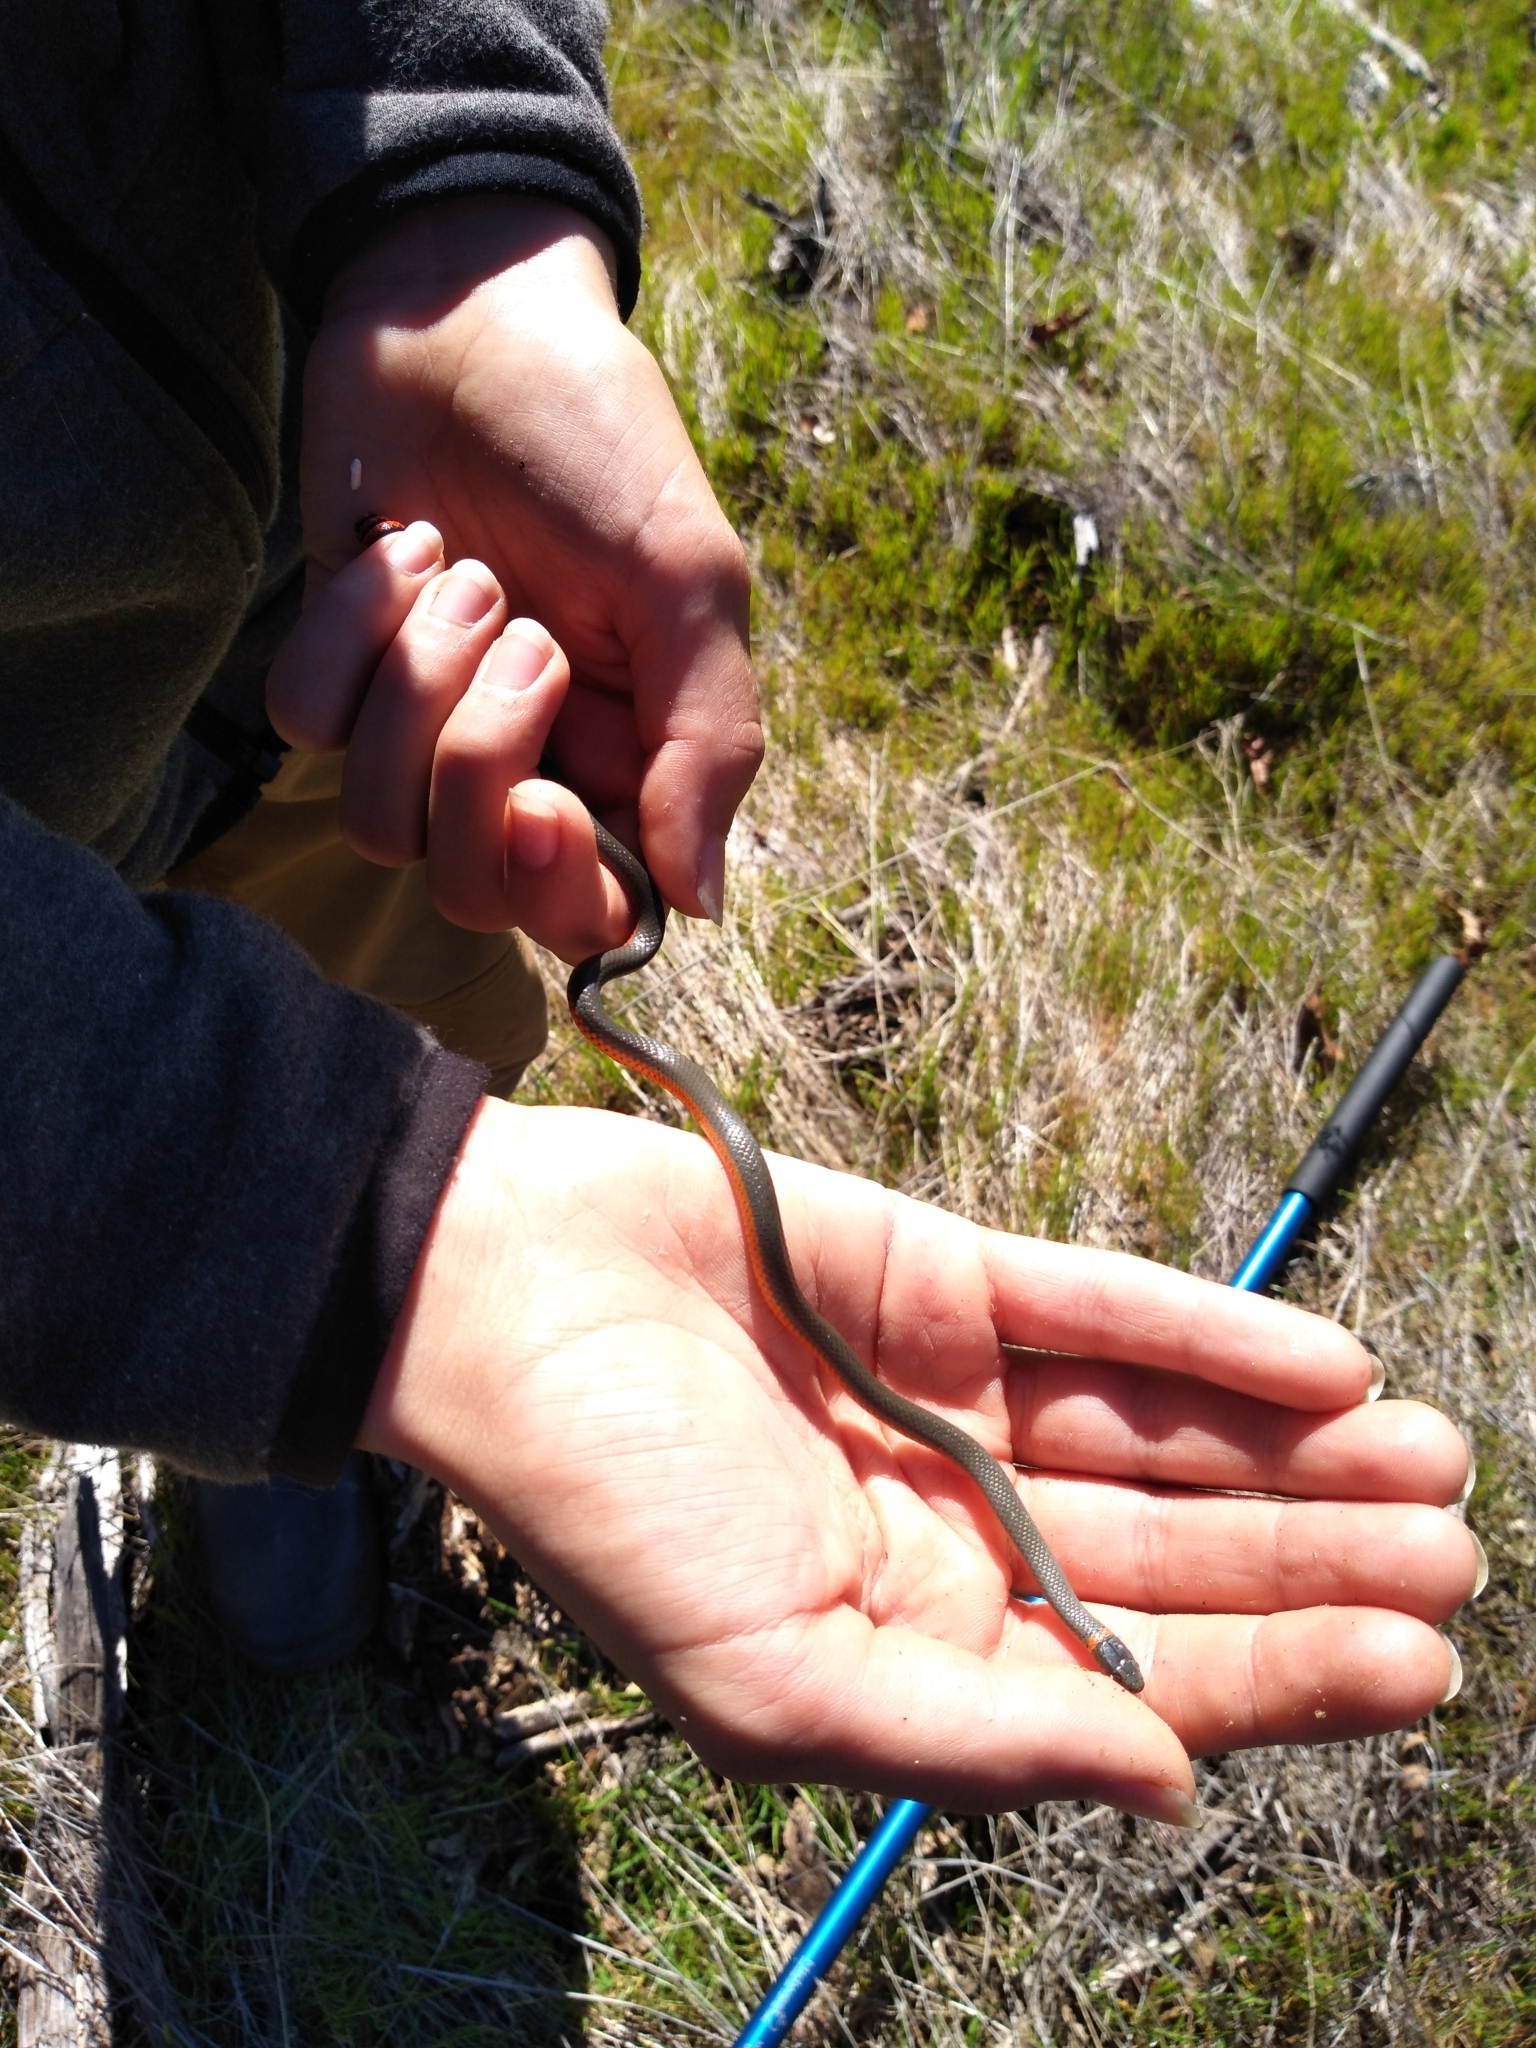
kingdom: Animalia
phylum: Chordata
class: Squamata
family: Colubridae
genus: Diadophis
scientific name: Diadophis punctatus
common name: Ringneck snake
